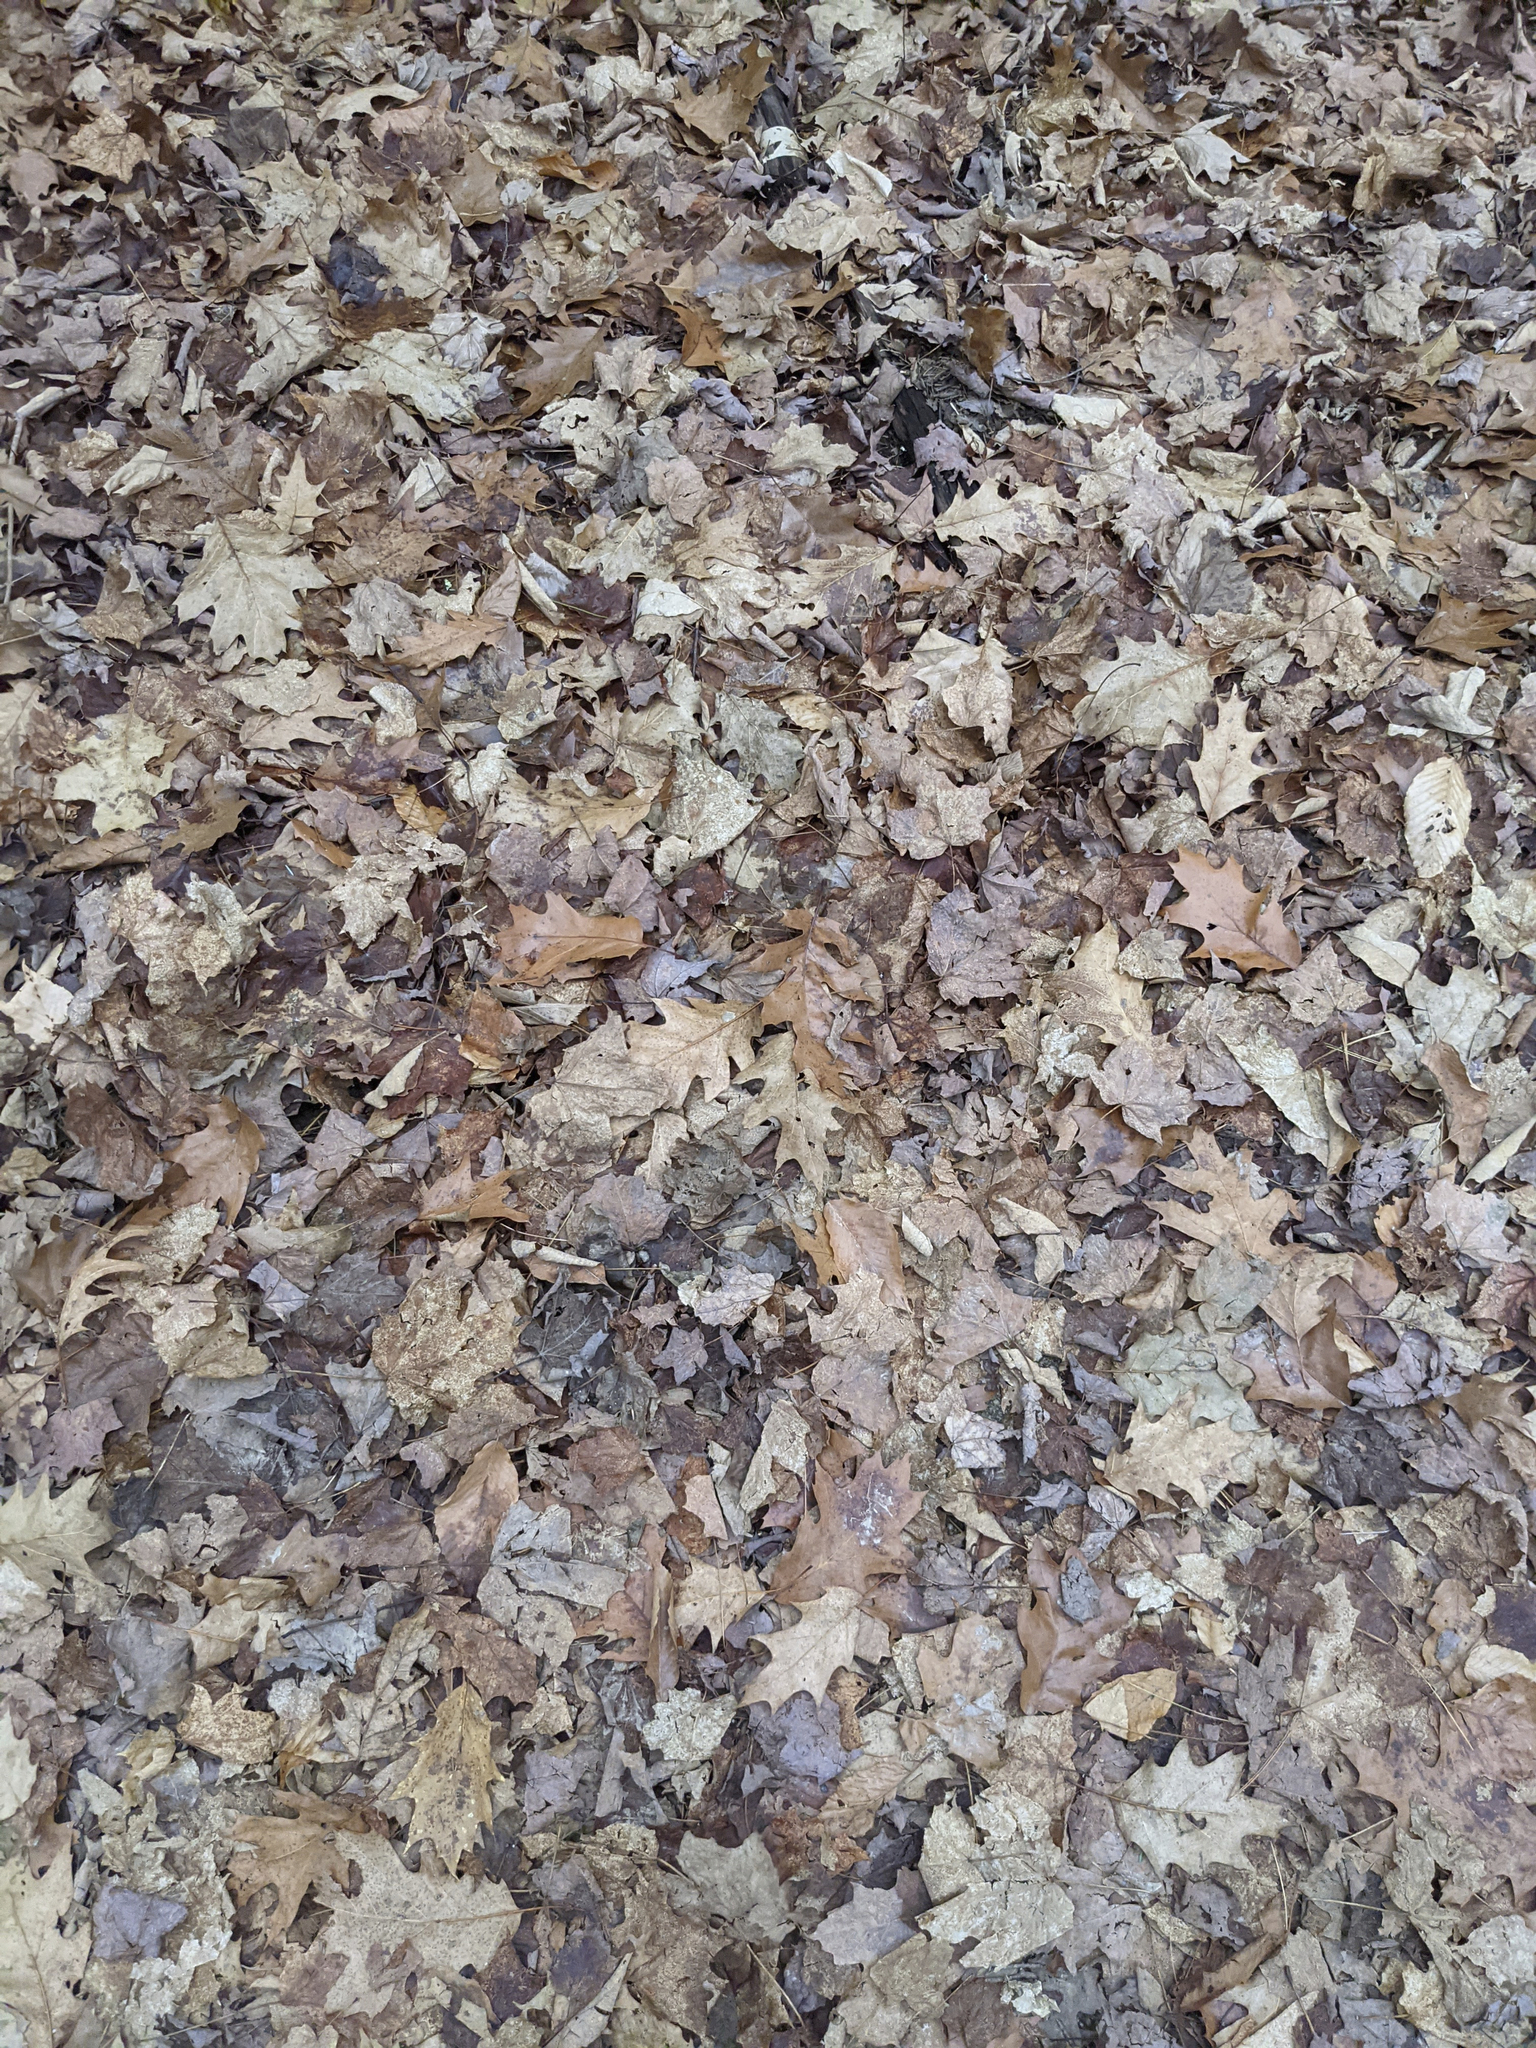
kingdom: Plantae
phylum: Tracheophyta
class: Magnoliopsida
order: Fagales
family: Fagaceae
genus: Quercus
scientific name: Quercus rubra
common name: Red oak
